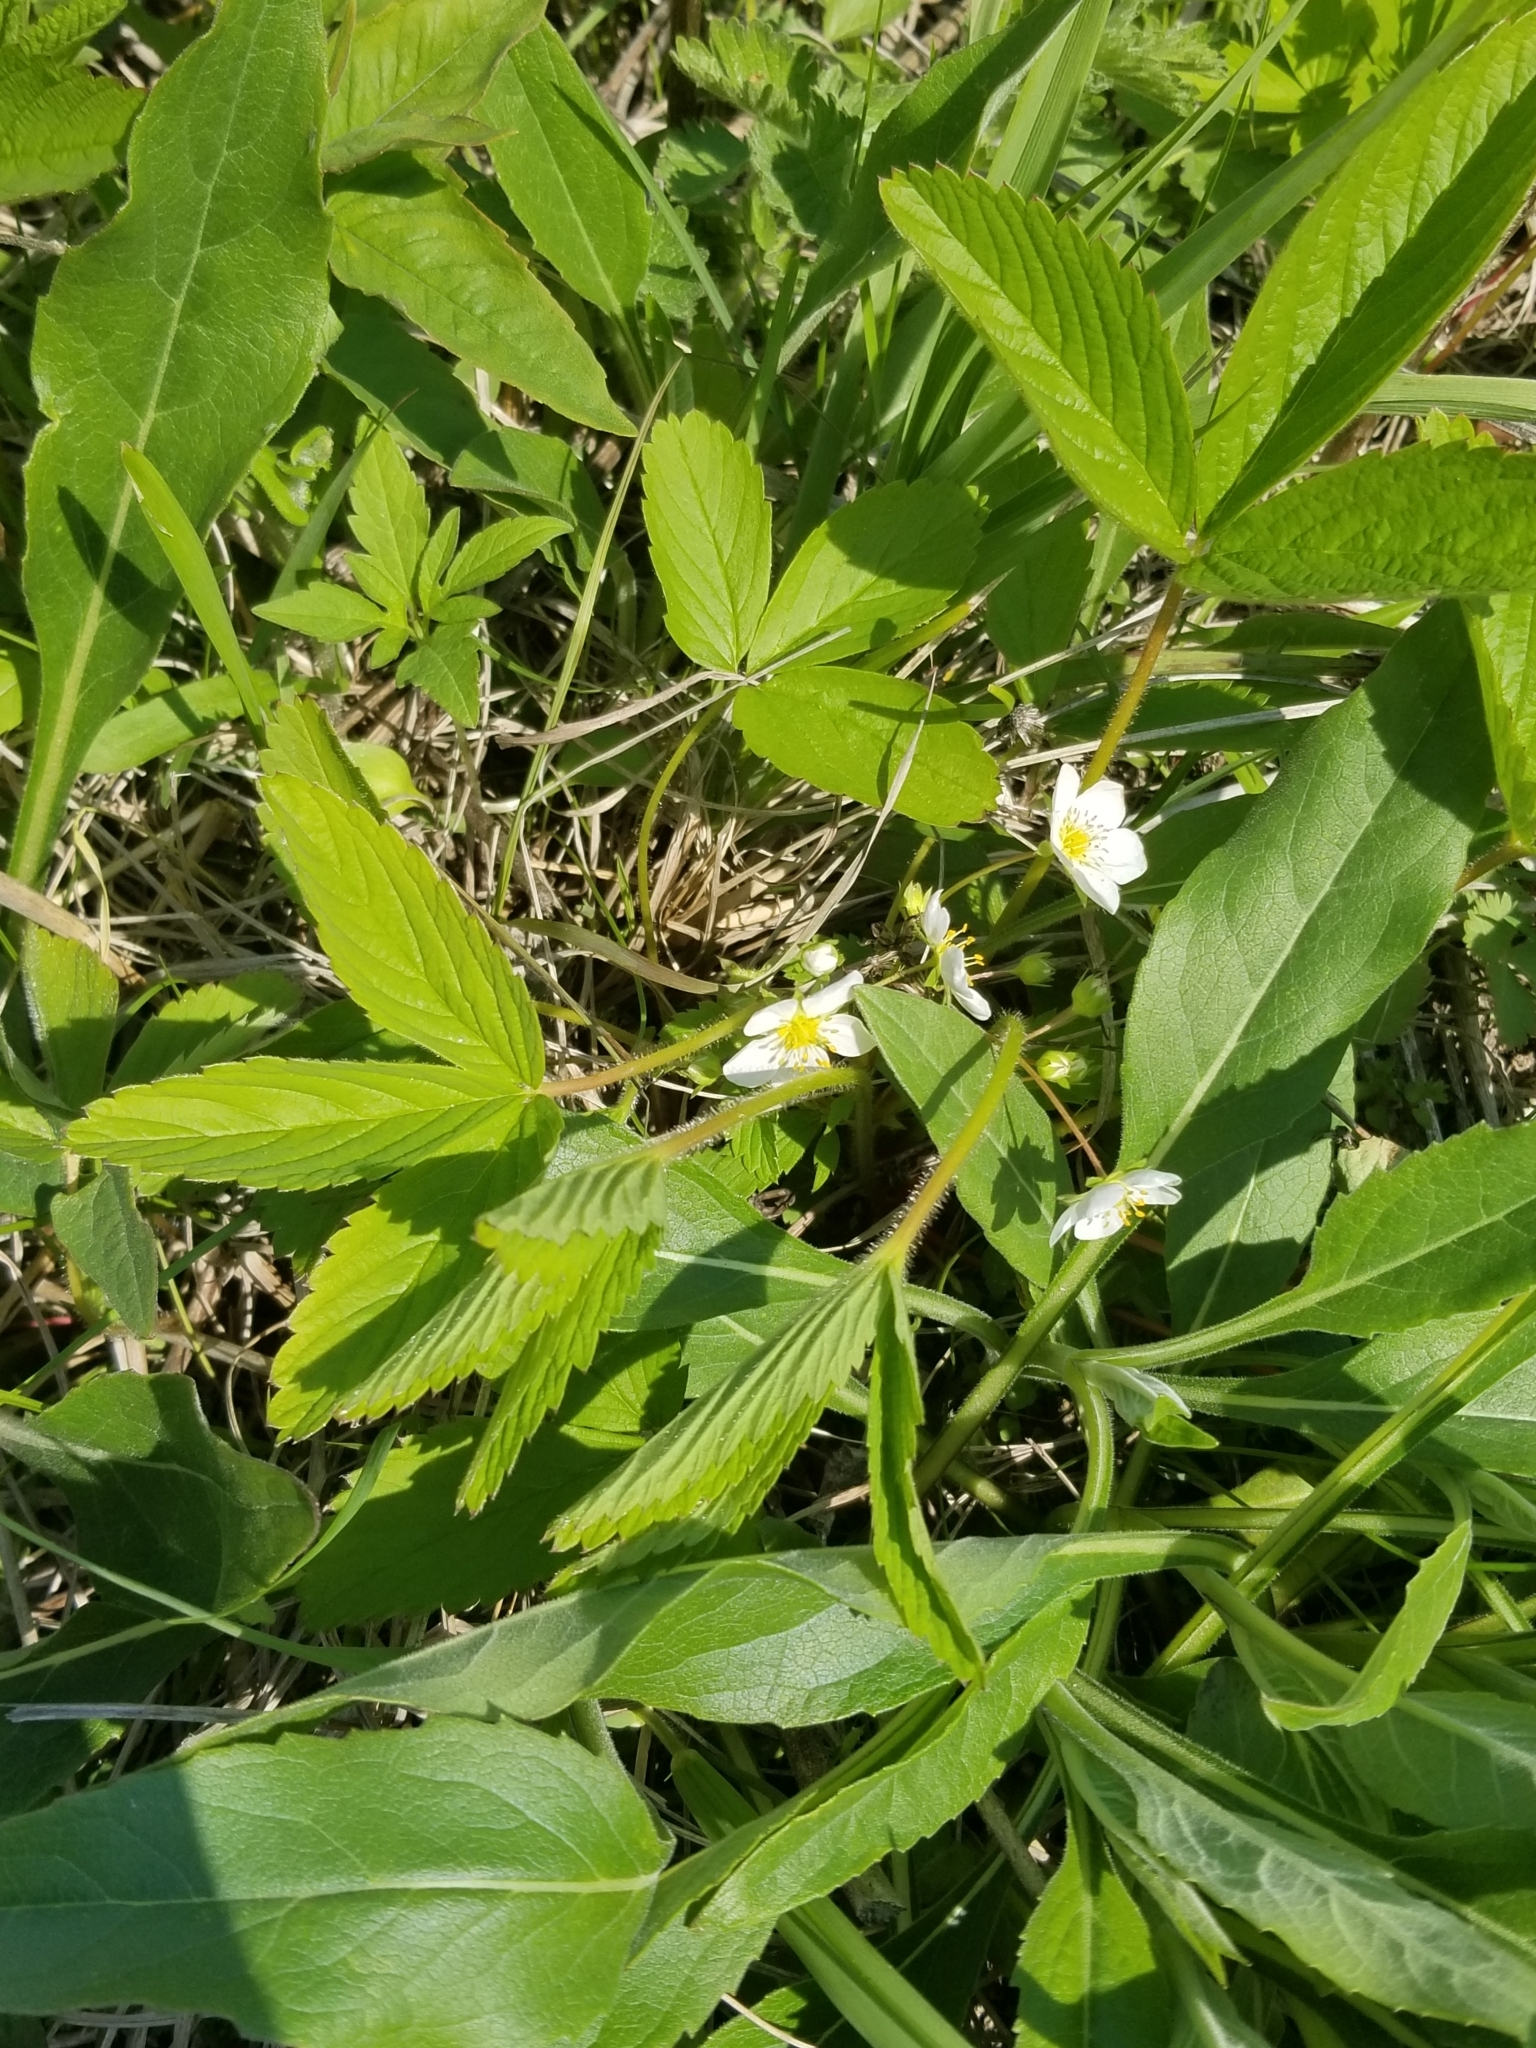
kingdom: Plantae
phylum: Tracheophyta
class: Magnoliopsida
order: Rosales
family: Rosaceae
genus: Fragaria
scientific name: Fragaria virginiana
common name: Thickleaved wild strawberry
